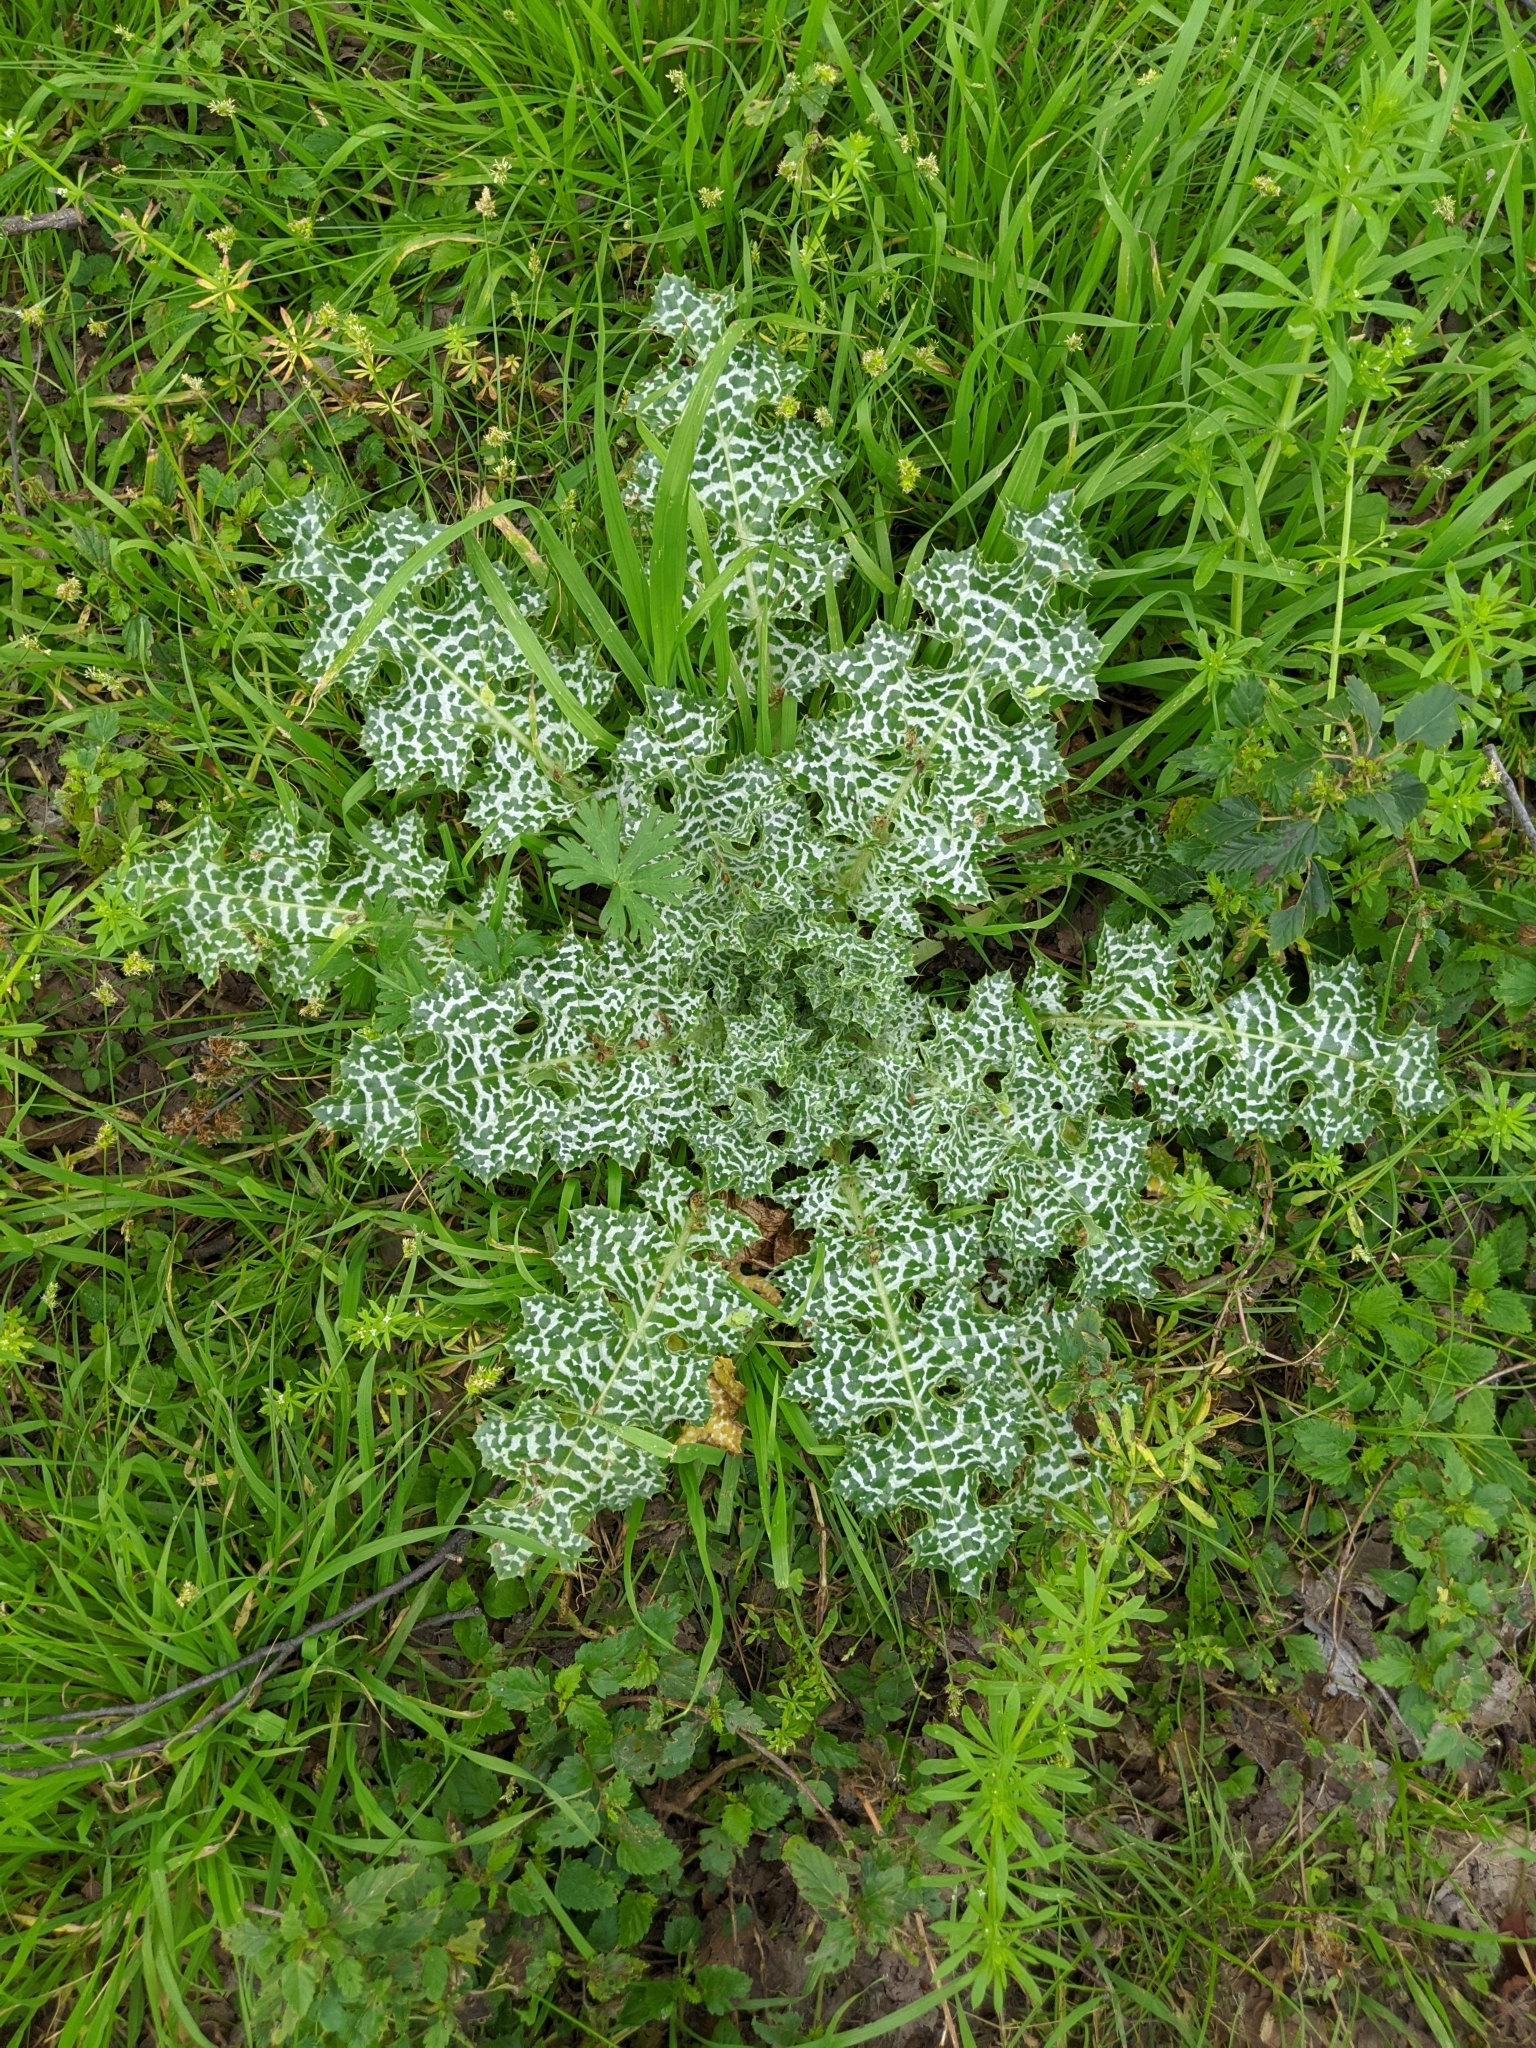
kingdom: Plantae
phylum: Tracheophyta
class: Magnoliopsida
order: Asterales
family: Asteraceae
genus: Silybum
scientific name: Silybum marianum
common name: Milk thistle
